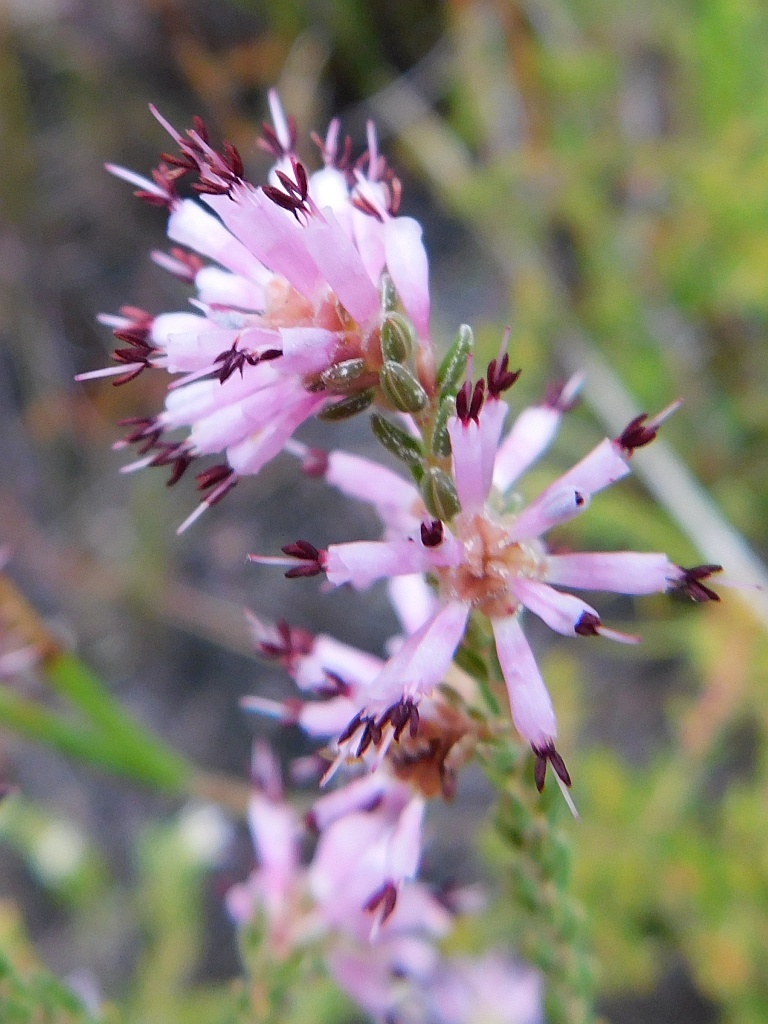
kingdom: Plantae
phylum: Tracheophyta
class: Magnoliopsida
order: Ericales
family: Ericaceae
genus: Erica
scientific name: Erica labialis
